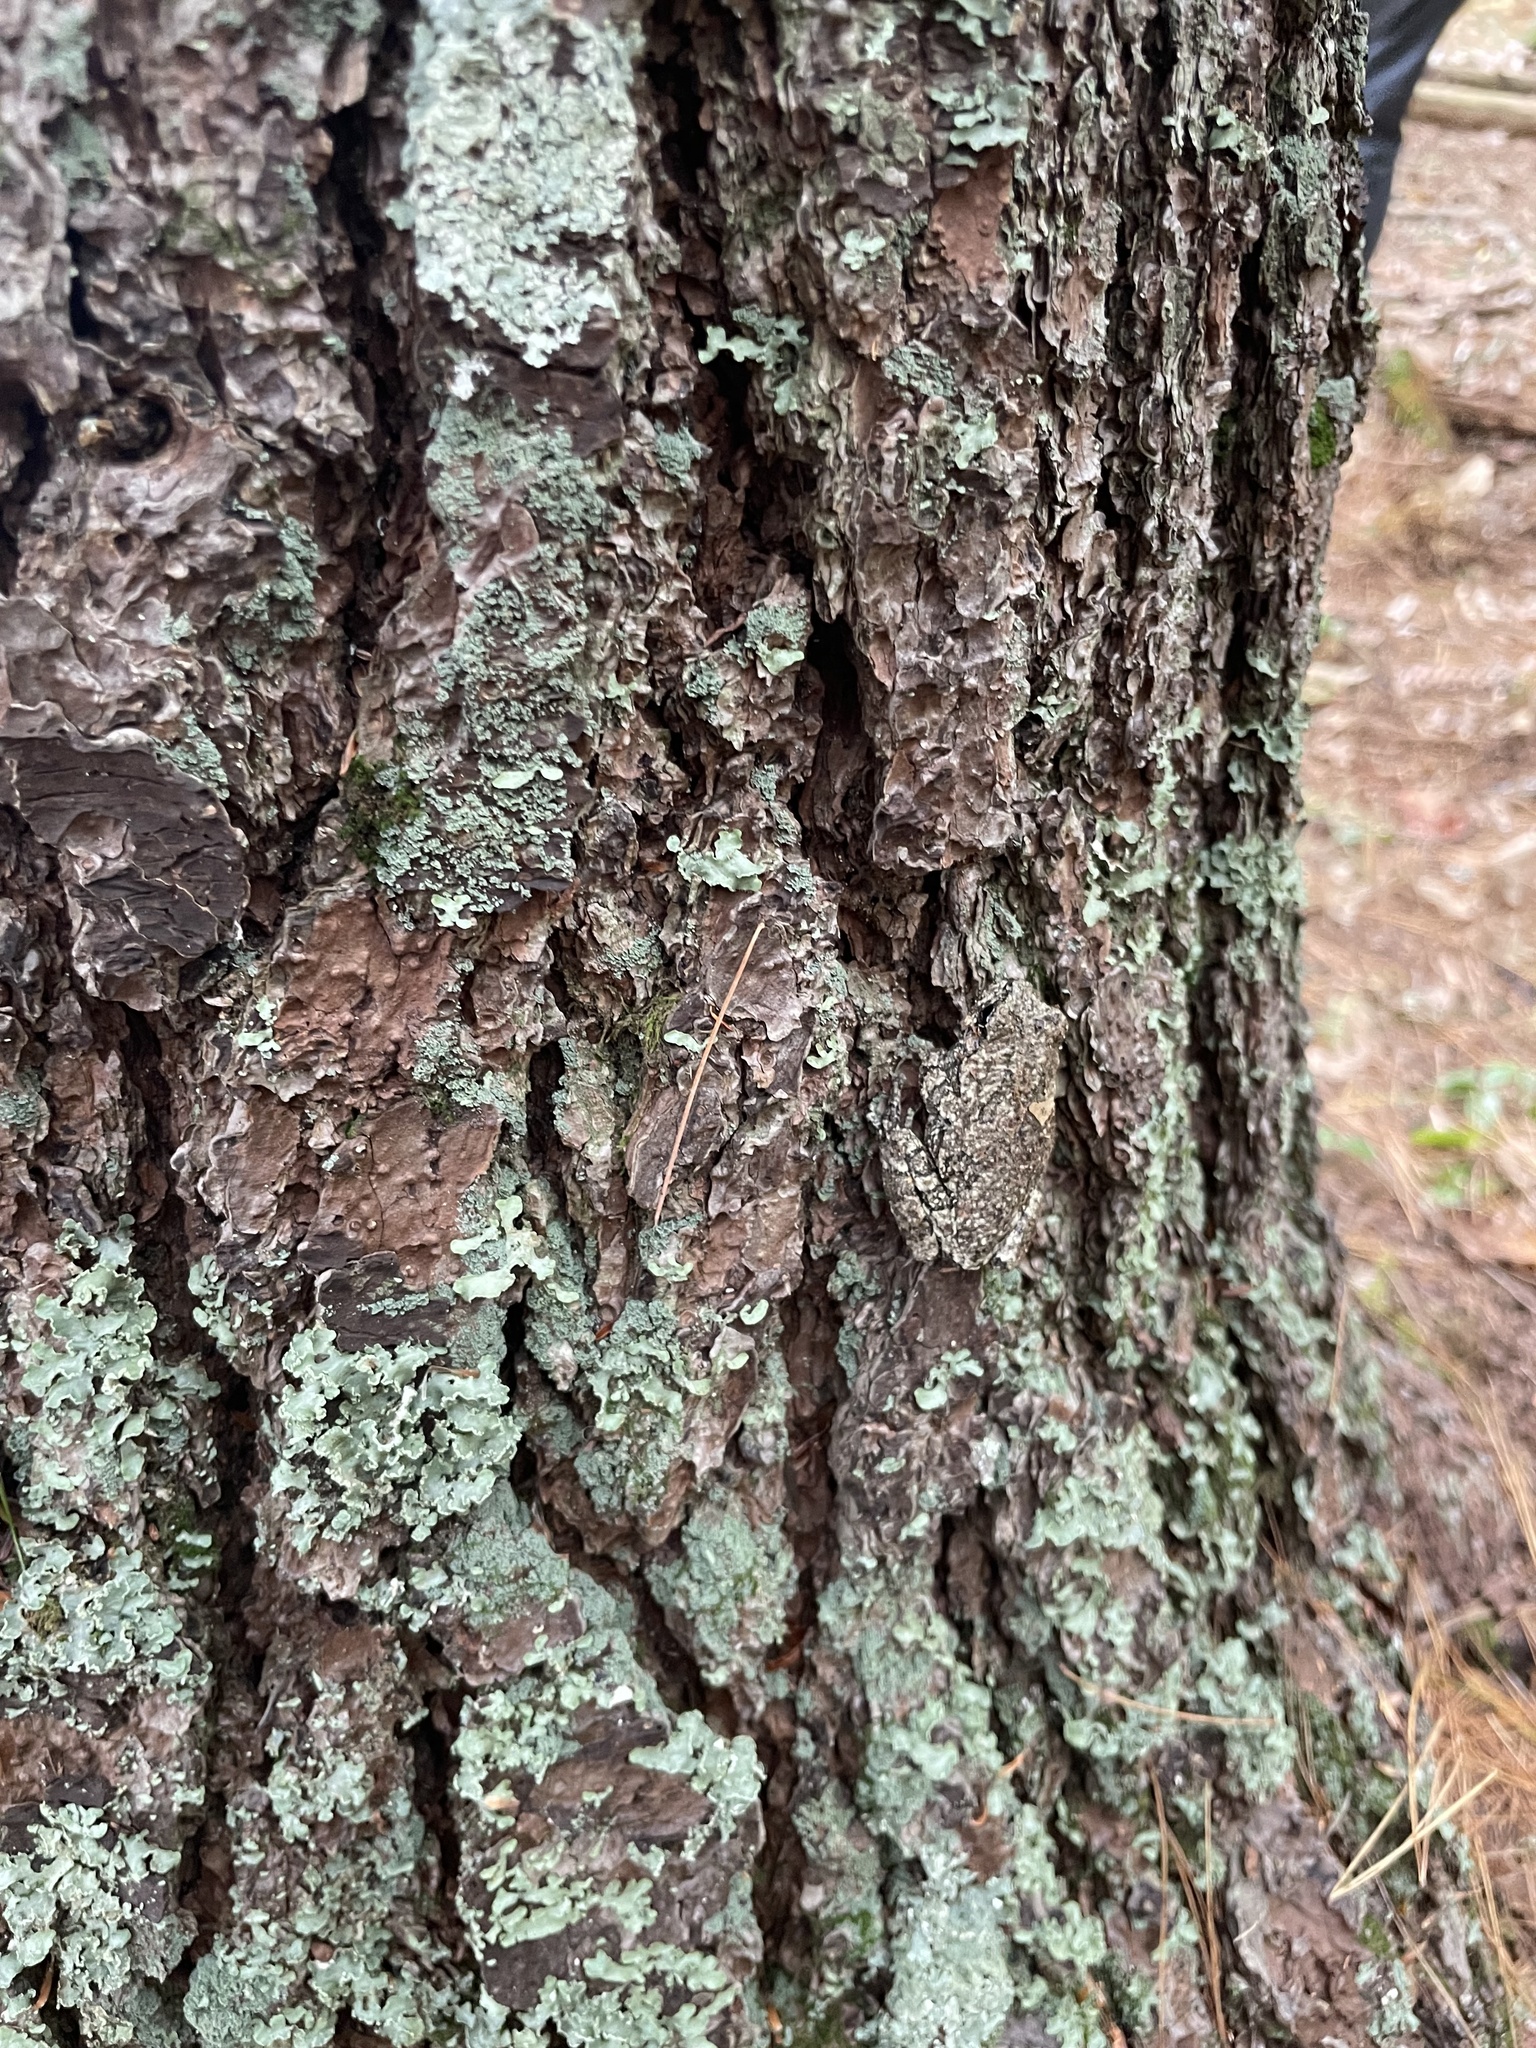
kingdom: Animalia
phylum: Chordata
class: Amphibia
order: Anura
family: Hylidae
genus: Dryophytes
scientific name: Dryophytes versicolor
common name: Gray treefrog
